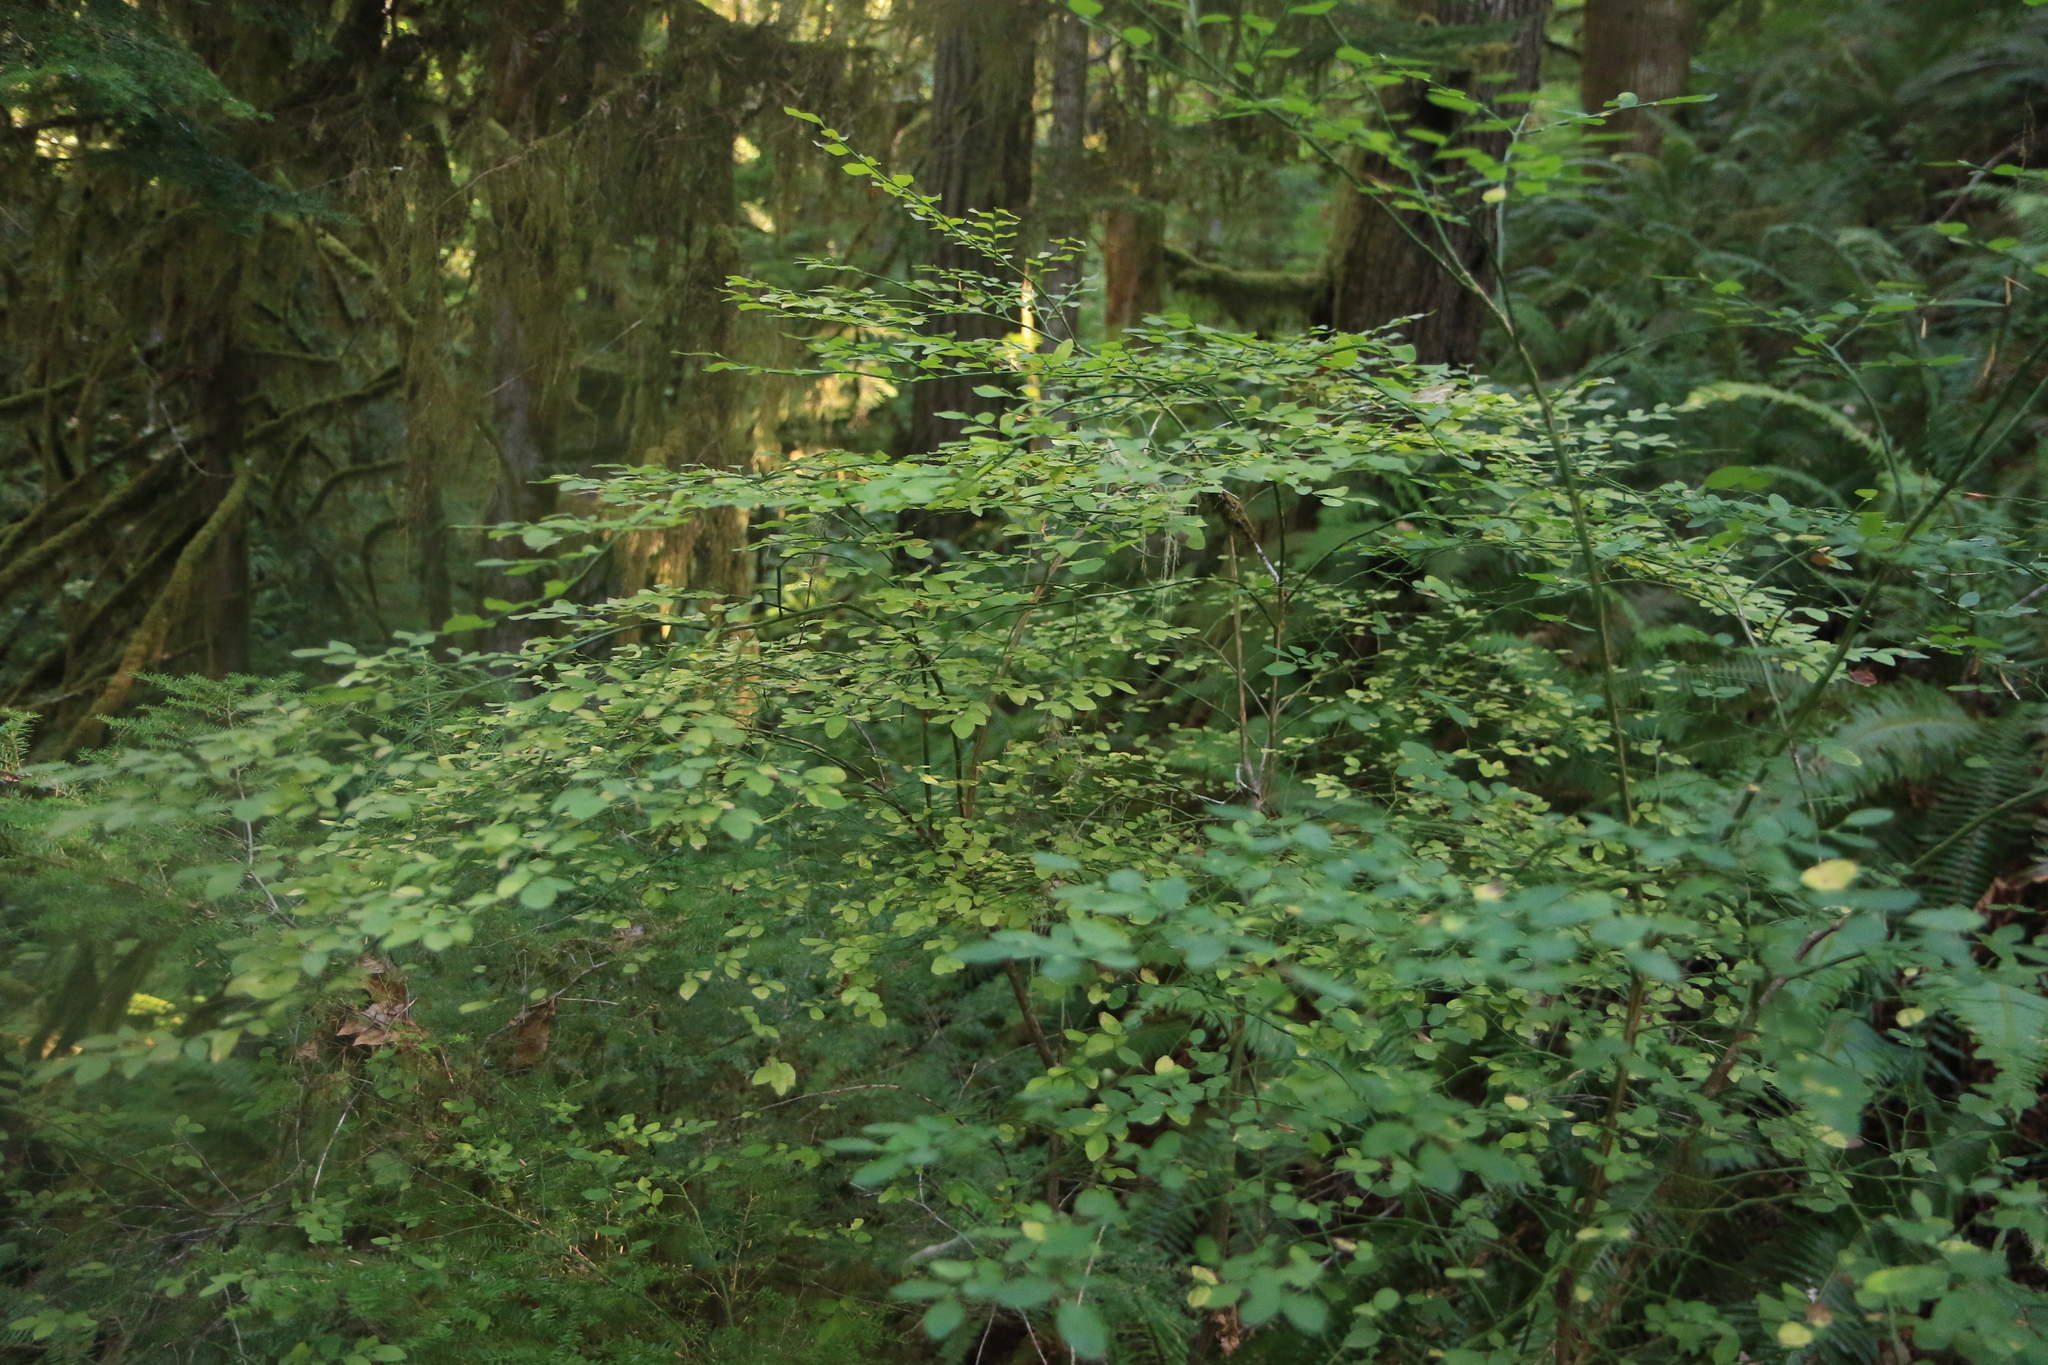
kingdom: Plantae
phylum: Tracheophyta
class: Magnoliopsida
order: Ericales
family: Ericaceae
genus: Vaccinium
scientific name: Vaccinium parvifolium
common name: Red-huckleberry
